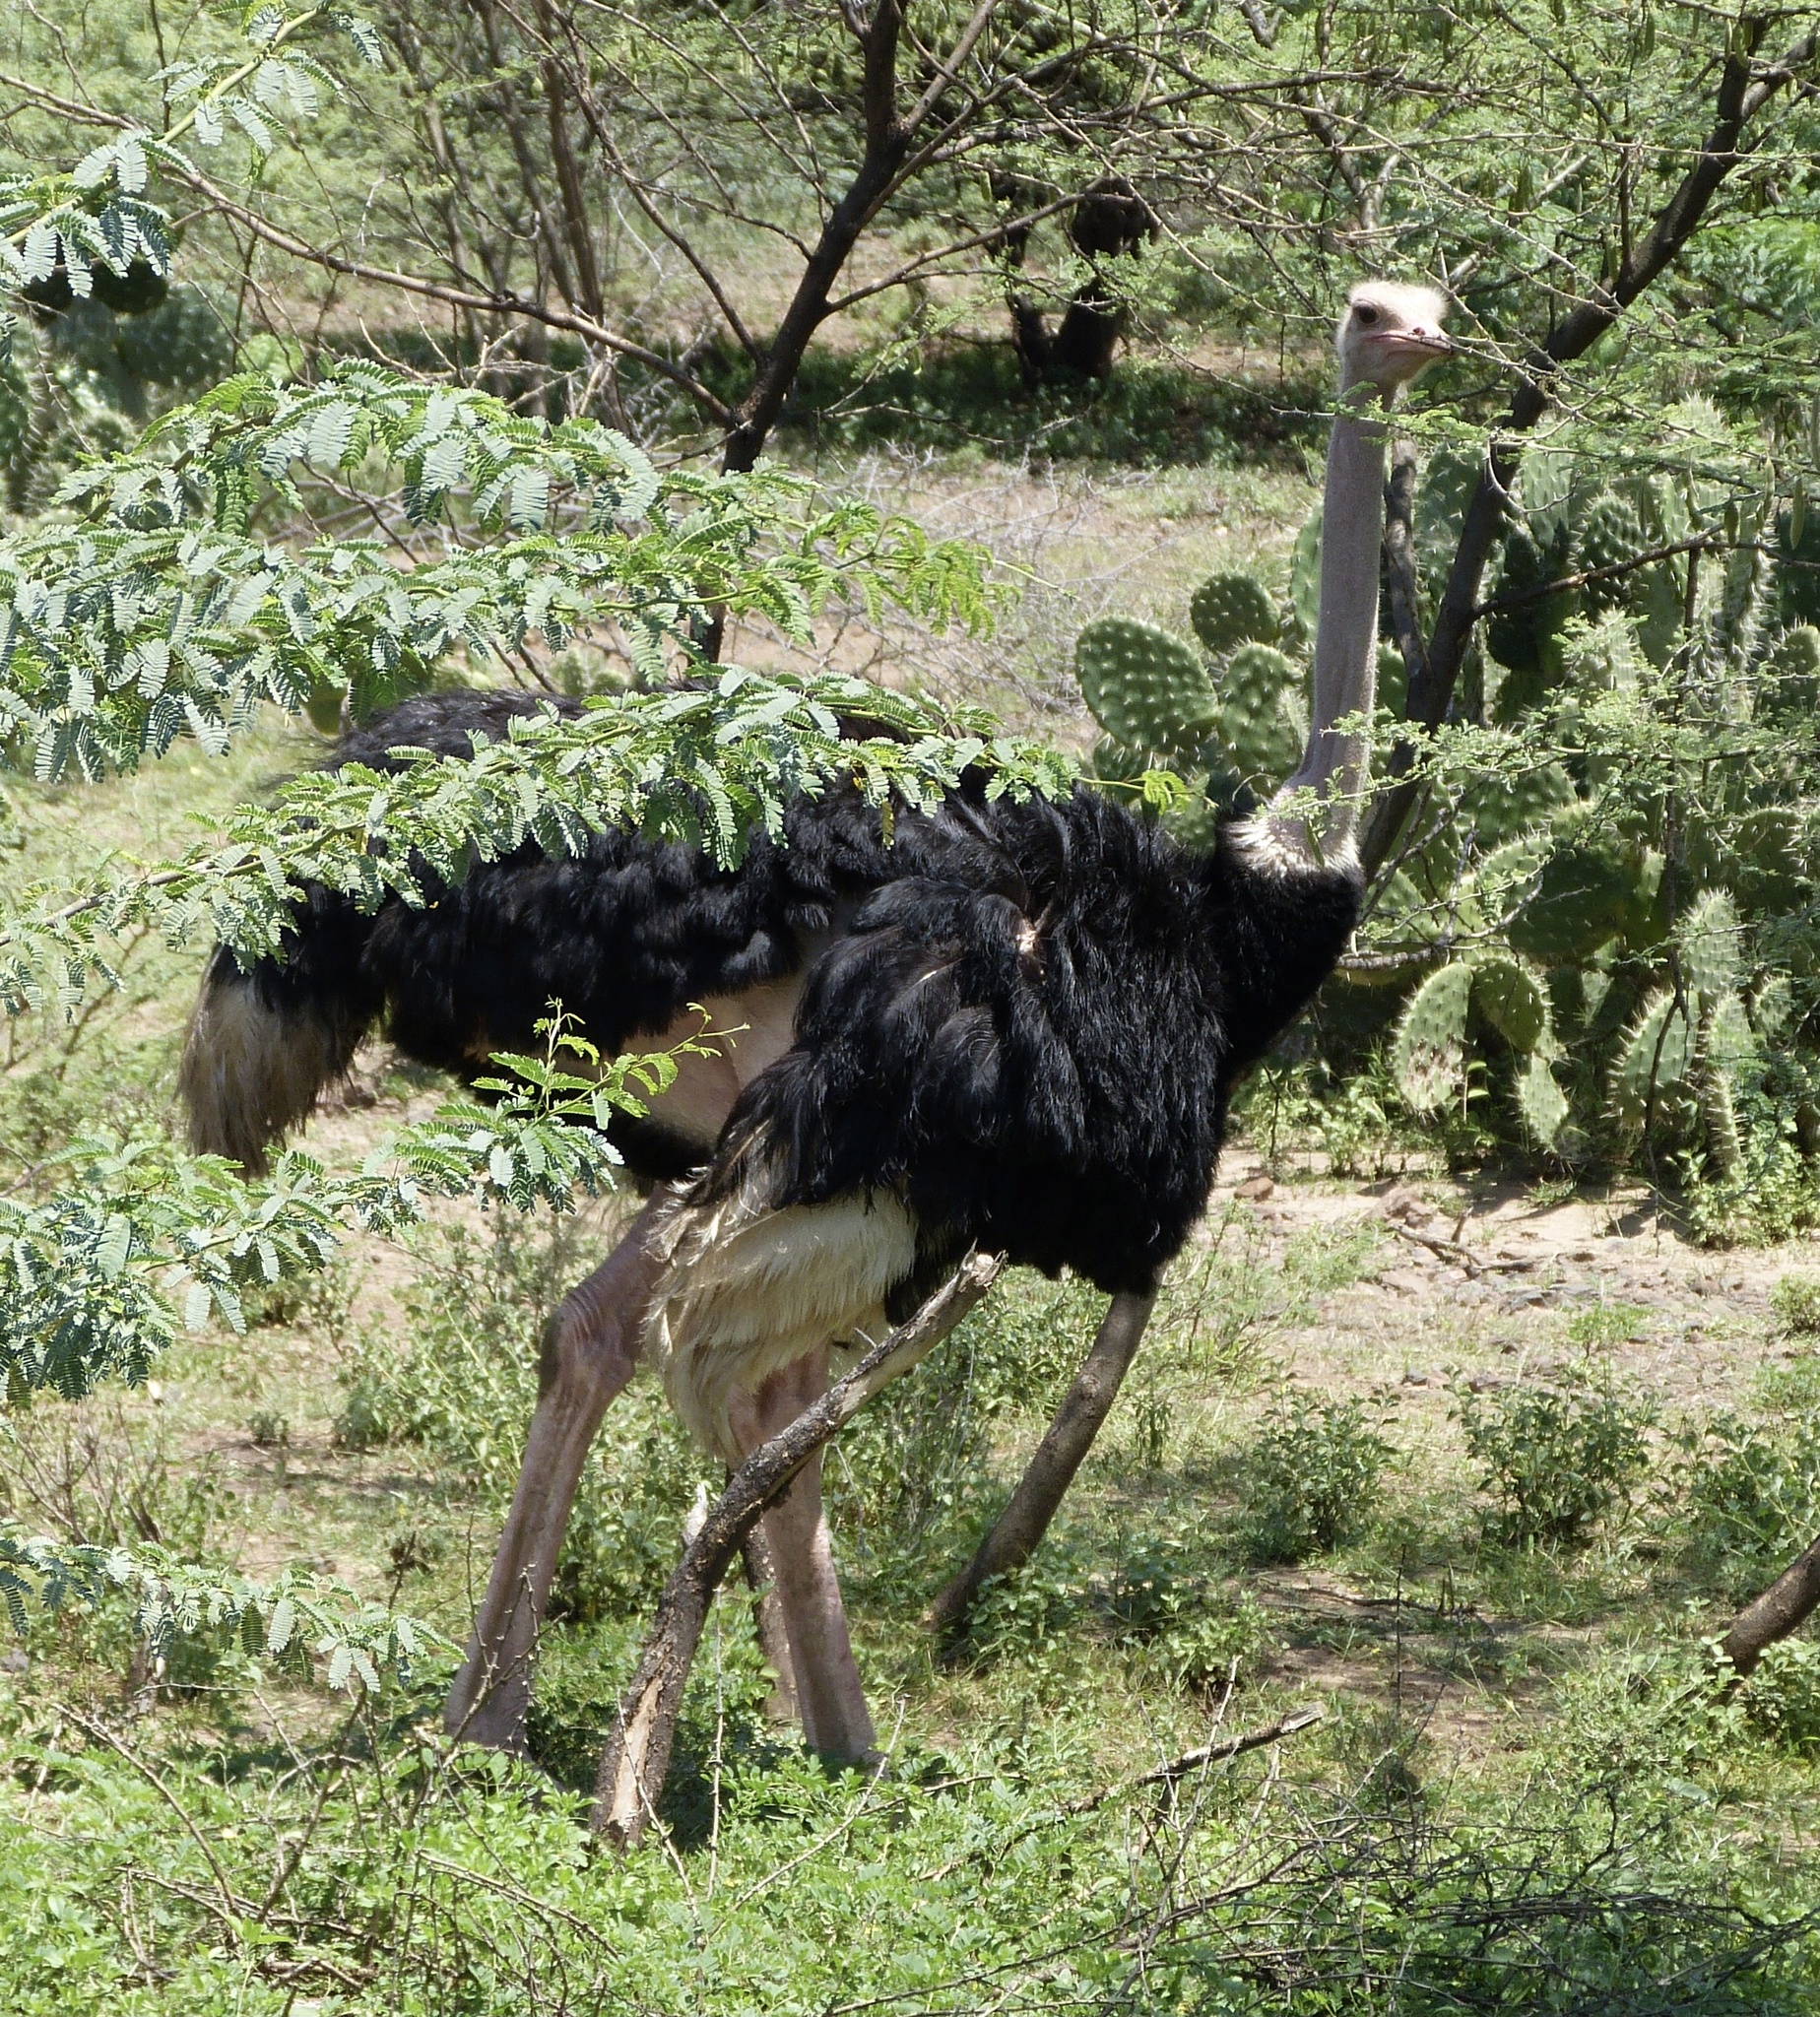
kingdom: Animalia
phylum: Chordata
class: Aves
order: Struthioniformes
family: Struthionidae
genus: Struthio
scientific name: Struthio camelus
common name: Common ostrich
